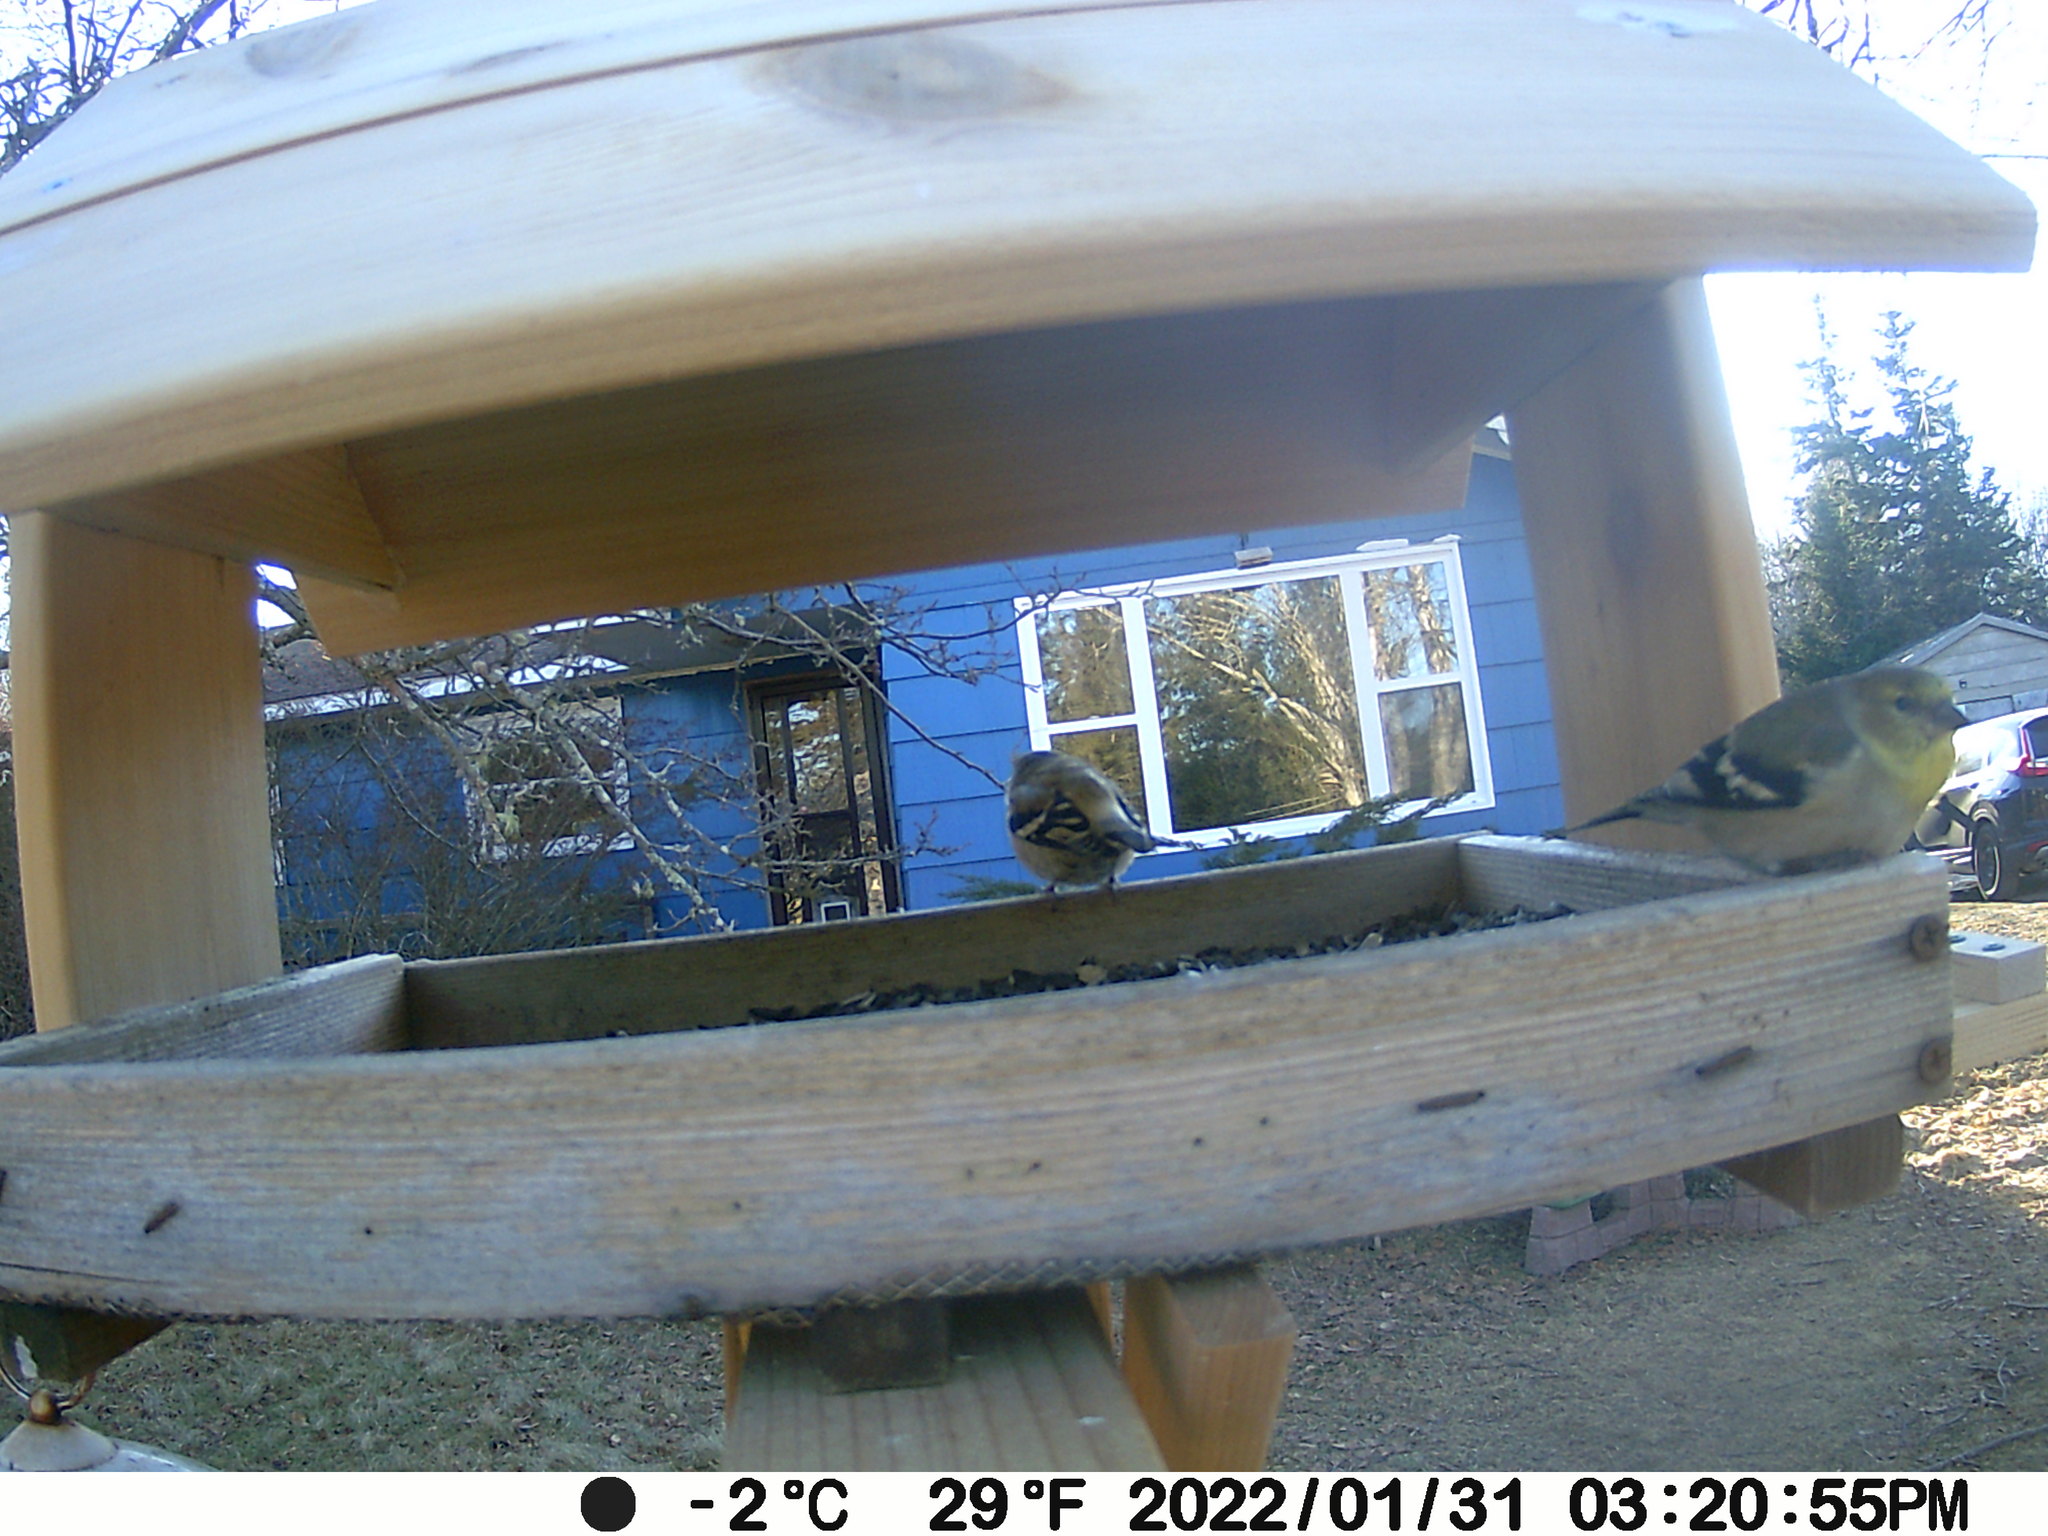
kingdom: Animalia
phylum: Chordata
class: Aves
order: Passeriformes
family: Fringillidae
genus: Spinus
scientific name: Spinus tristis
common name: American goldfinch
